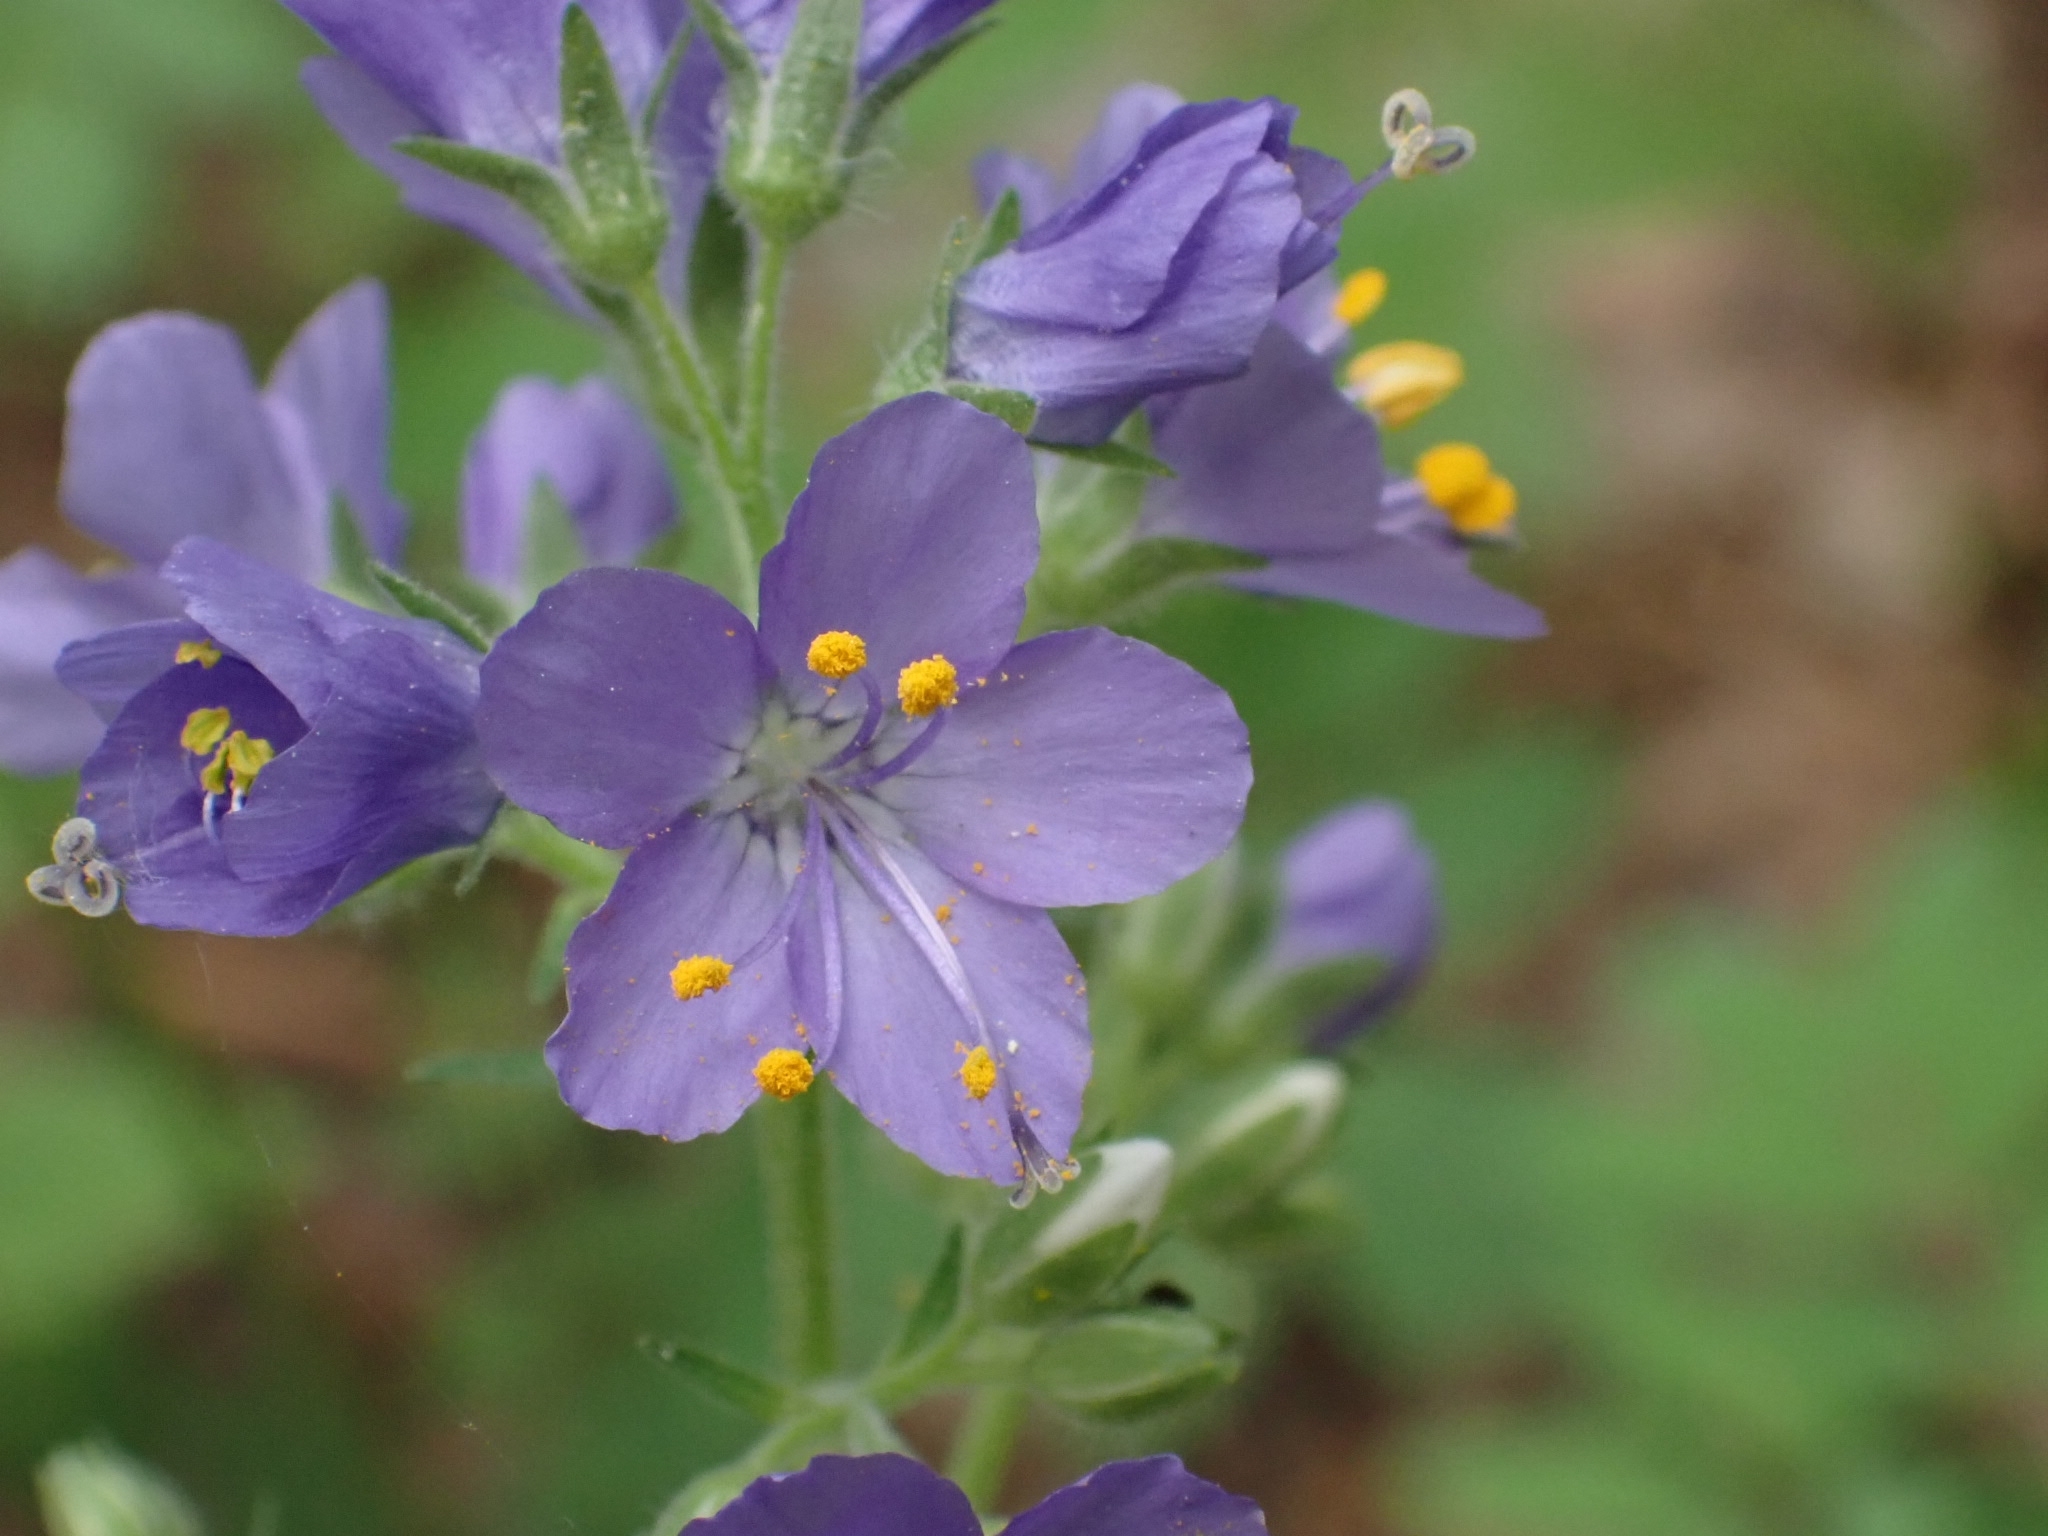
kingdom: Plantae
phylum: Tracheophyta
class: Magnoliopsida
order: Ericales
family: Polemoniaceae
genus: Polemonium
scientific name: Polemonium caeruleum
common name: Jacob's-ladder
